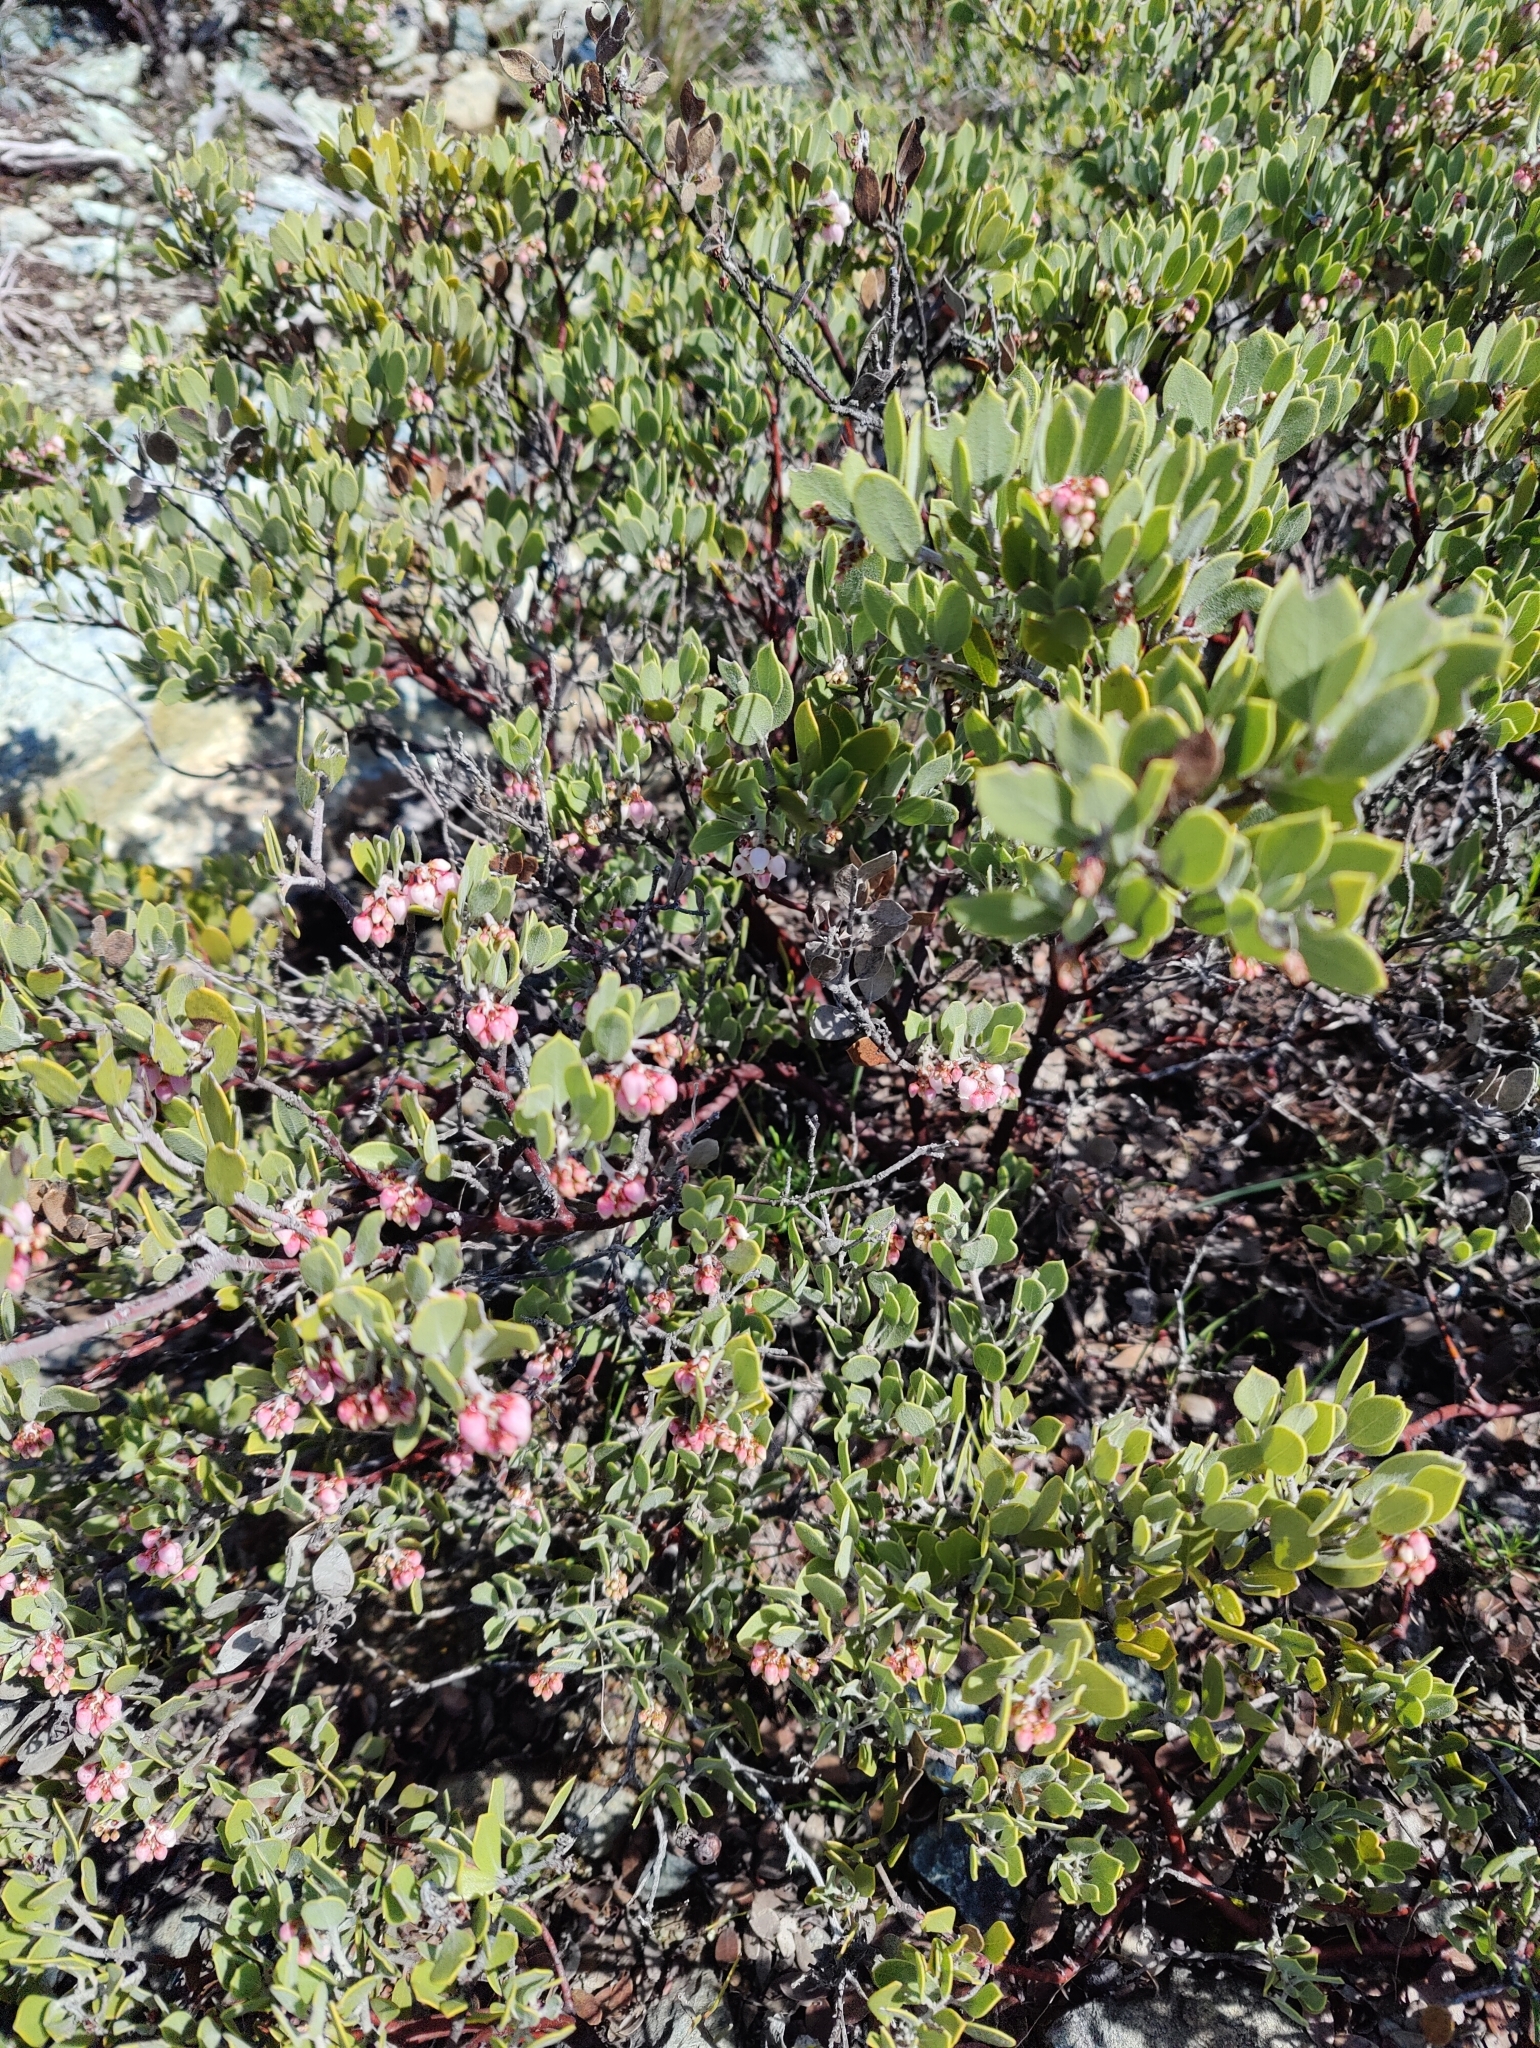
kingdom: Plantae
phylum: Tracheophyta
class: Magnoliopsida
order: Ericales
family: Ericaceae
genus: Arctostaphylos
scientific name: Arctostaphylos montana
